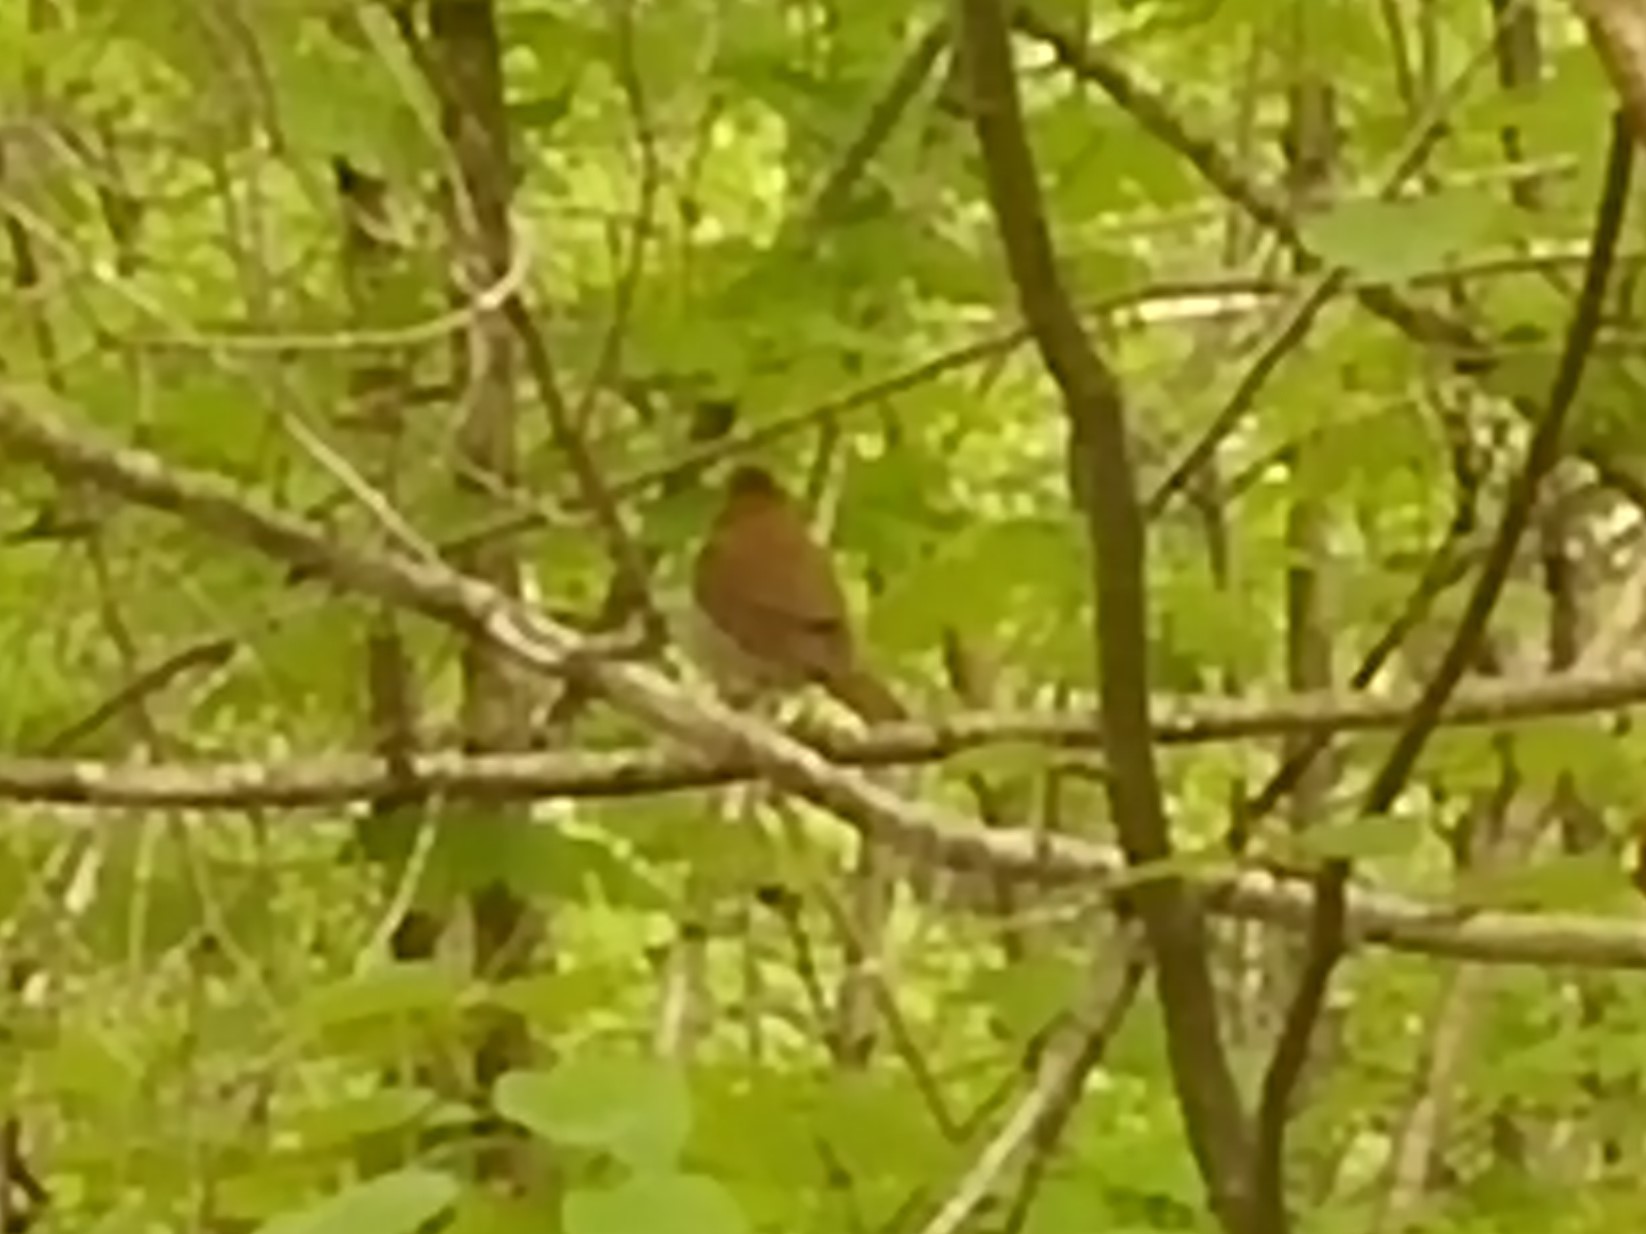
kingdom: Animalia
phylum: Chordata
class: Aves
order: Passeriformes
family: Turdidae
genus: Catharus
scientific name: Catharus fuscescens
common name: Veery
